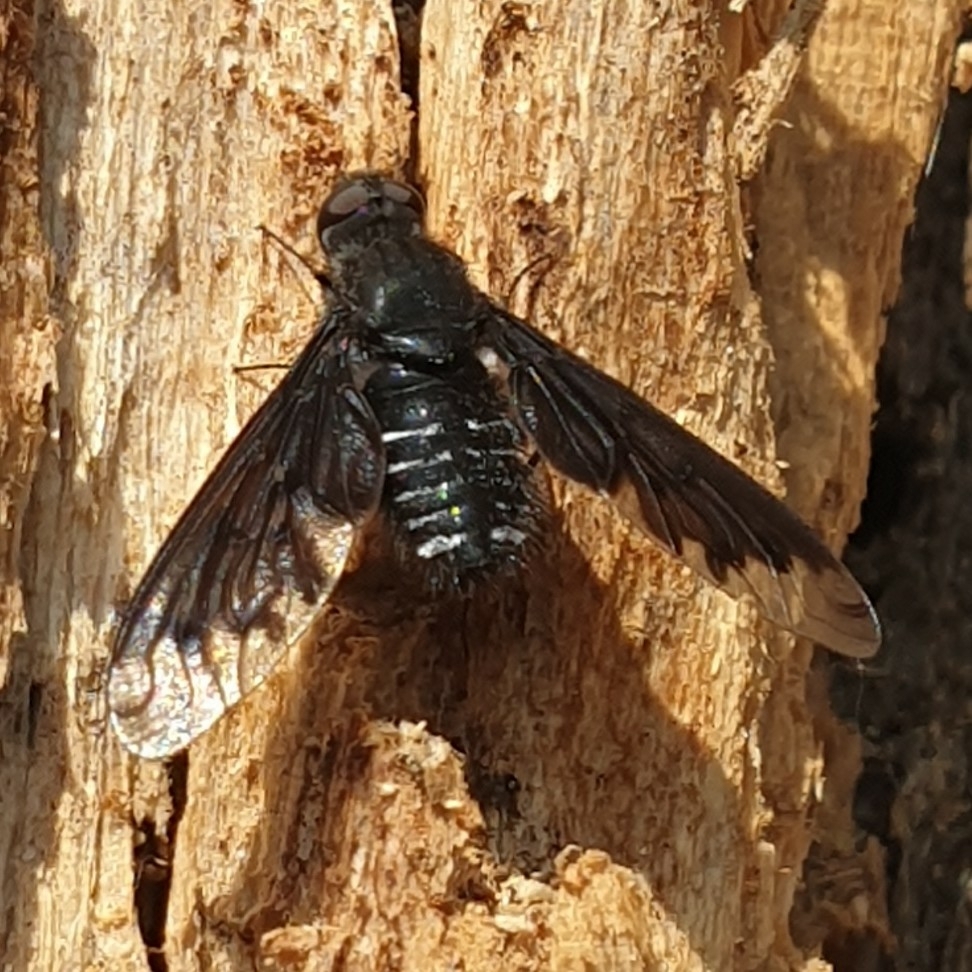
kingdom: Animalia
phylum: Arthropoda
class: Insecta
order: Diptera
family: Bombyliidae
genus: Anthrax
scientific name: Anthrax anthrax
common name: Anthracite bee-fly
